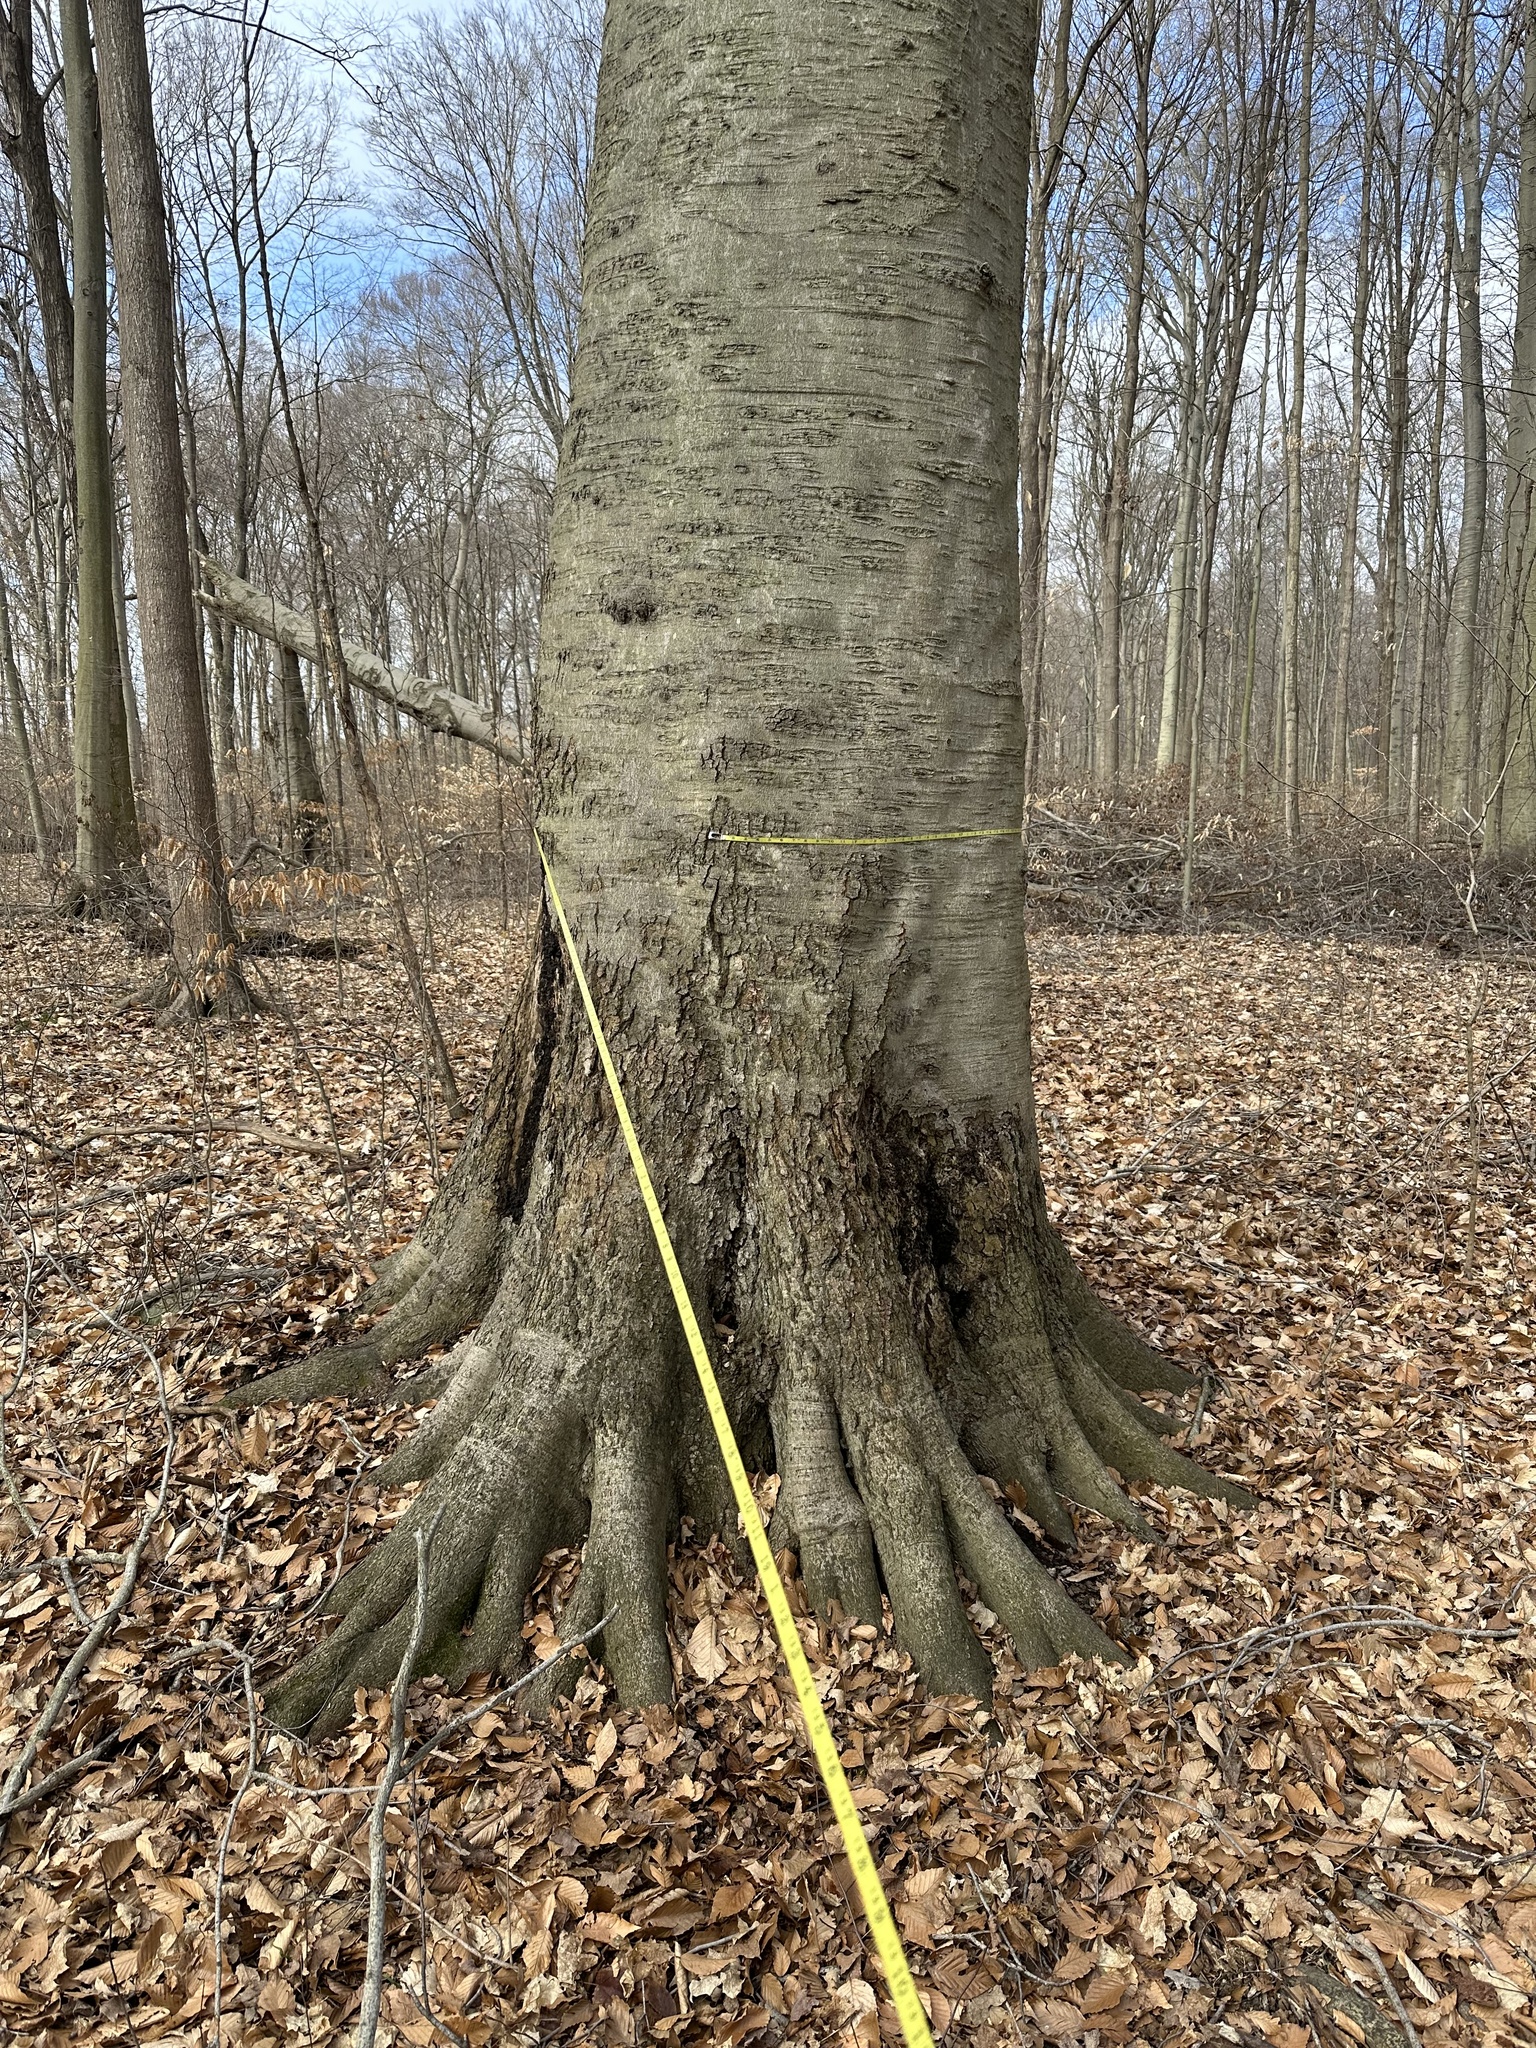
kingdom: Plantae
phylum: Tracheophyta
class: Magnoliopsida
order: Fagales
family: Fagaceae
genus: Fagus
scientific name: Fagus grandifolia
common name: American beech
